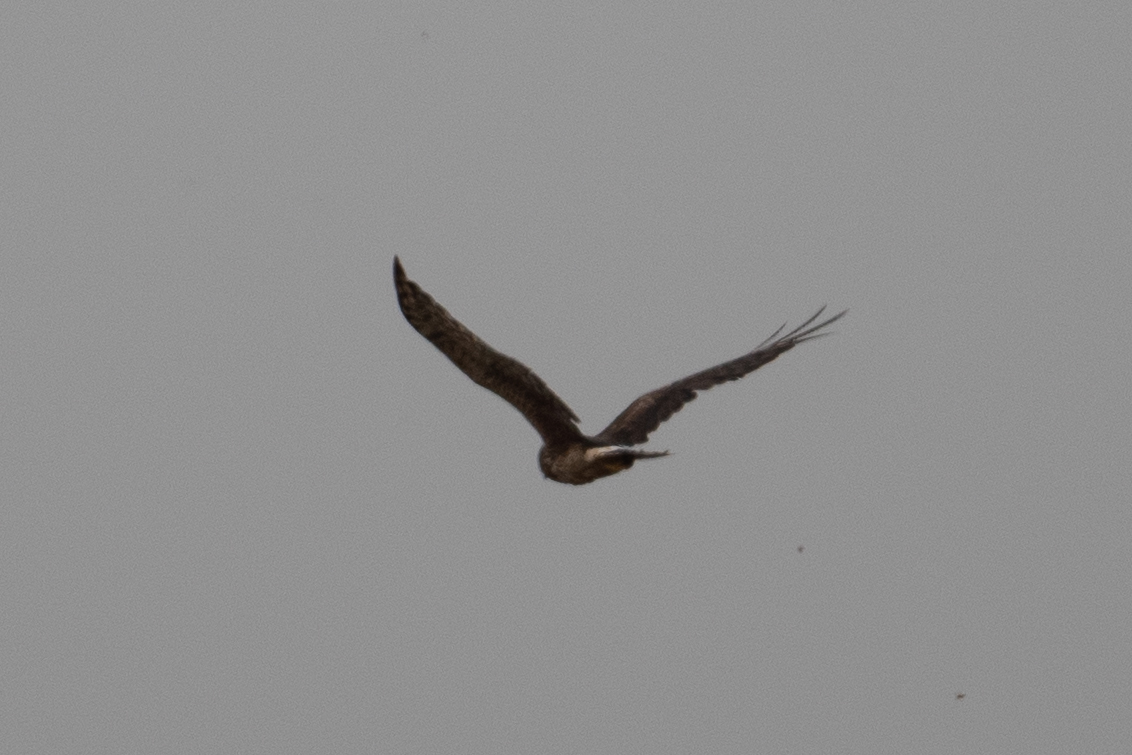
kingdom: Animalia
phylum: Chordata
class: Aves
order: Accipitriformes
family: Accipitridae
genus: Circus
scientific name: Circus cyaneus
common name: Hen harrier
